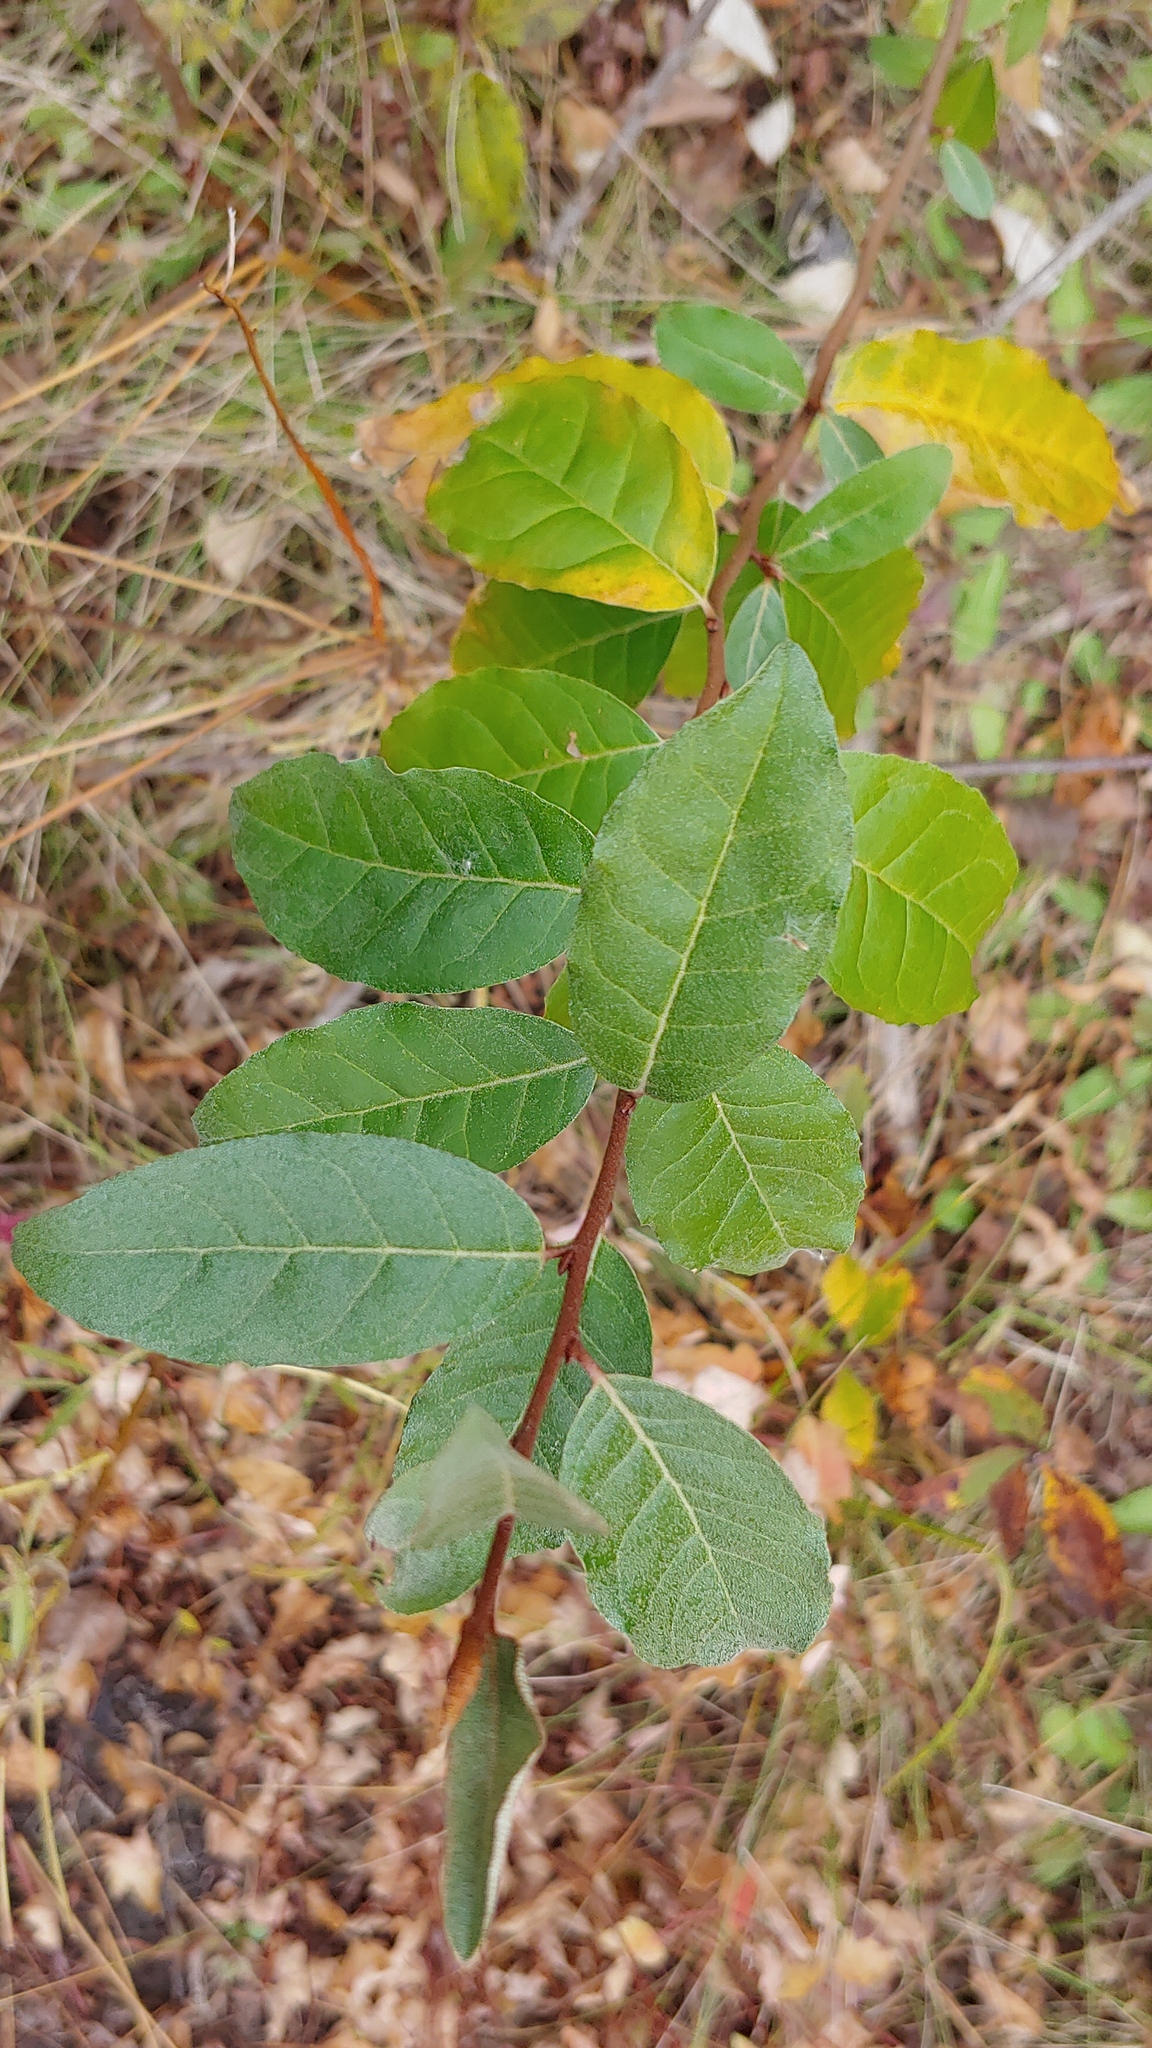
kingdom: Plantae
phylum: Tracheophyta
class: Magnoliopsida
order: Rosales
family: Elaeagnaceae
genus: Elaeagnus
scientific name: Elaeagnus umbellata
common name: Autumn olive
